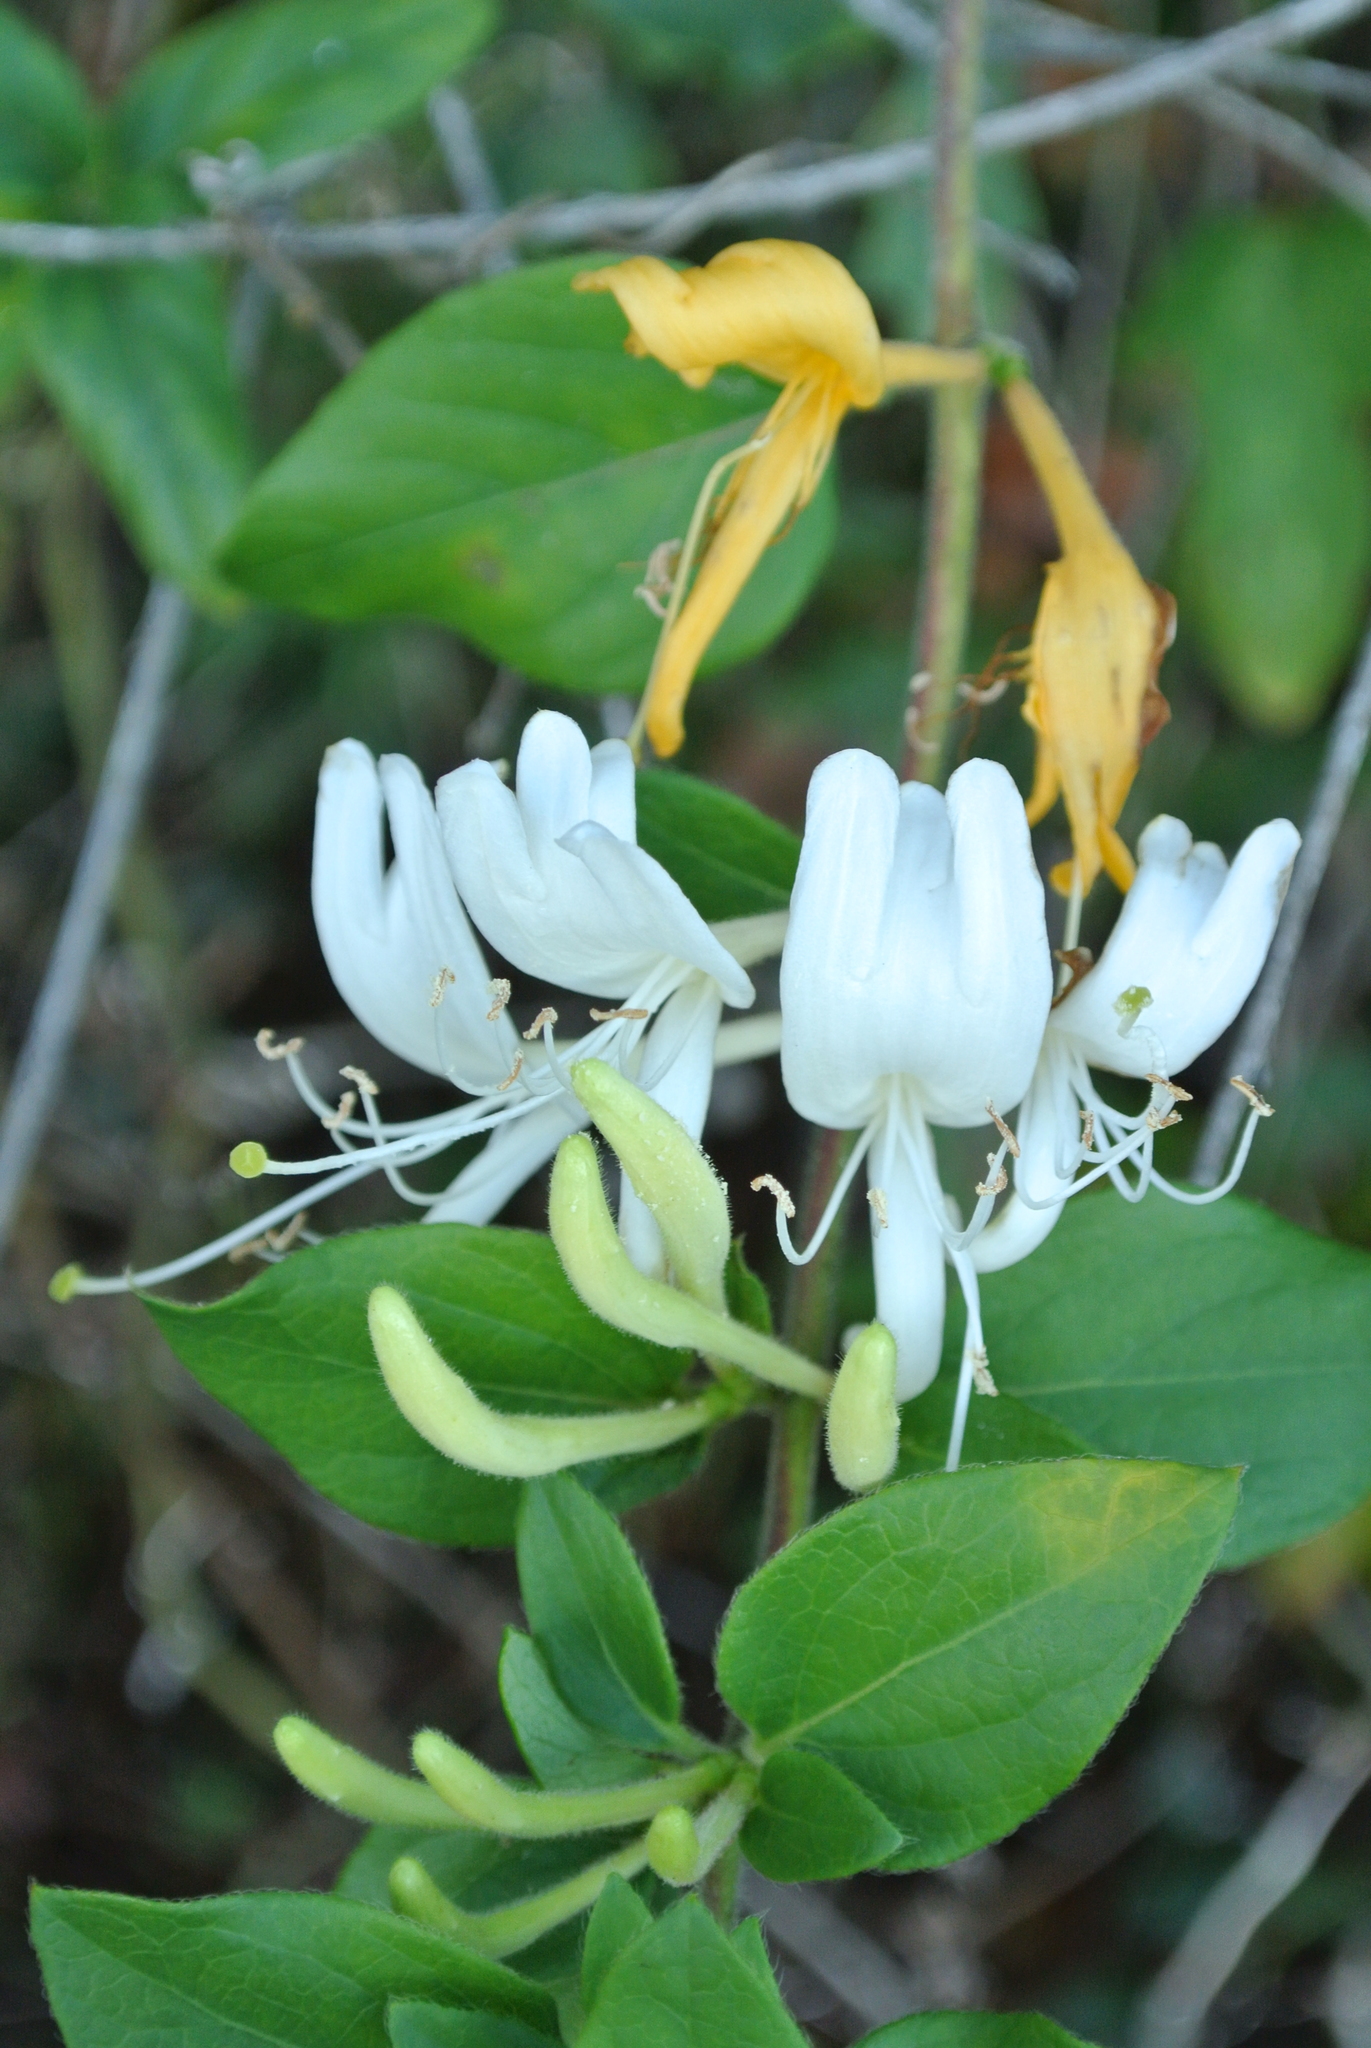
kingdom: Plantae
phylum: Tracheophyta
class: Magnoliopsida
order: Dipsacales
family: Caprifoliaceae
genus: Lonicera
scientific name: Lonicera japonica
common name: Japanese honeysuckle
